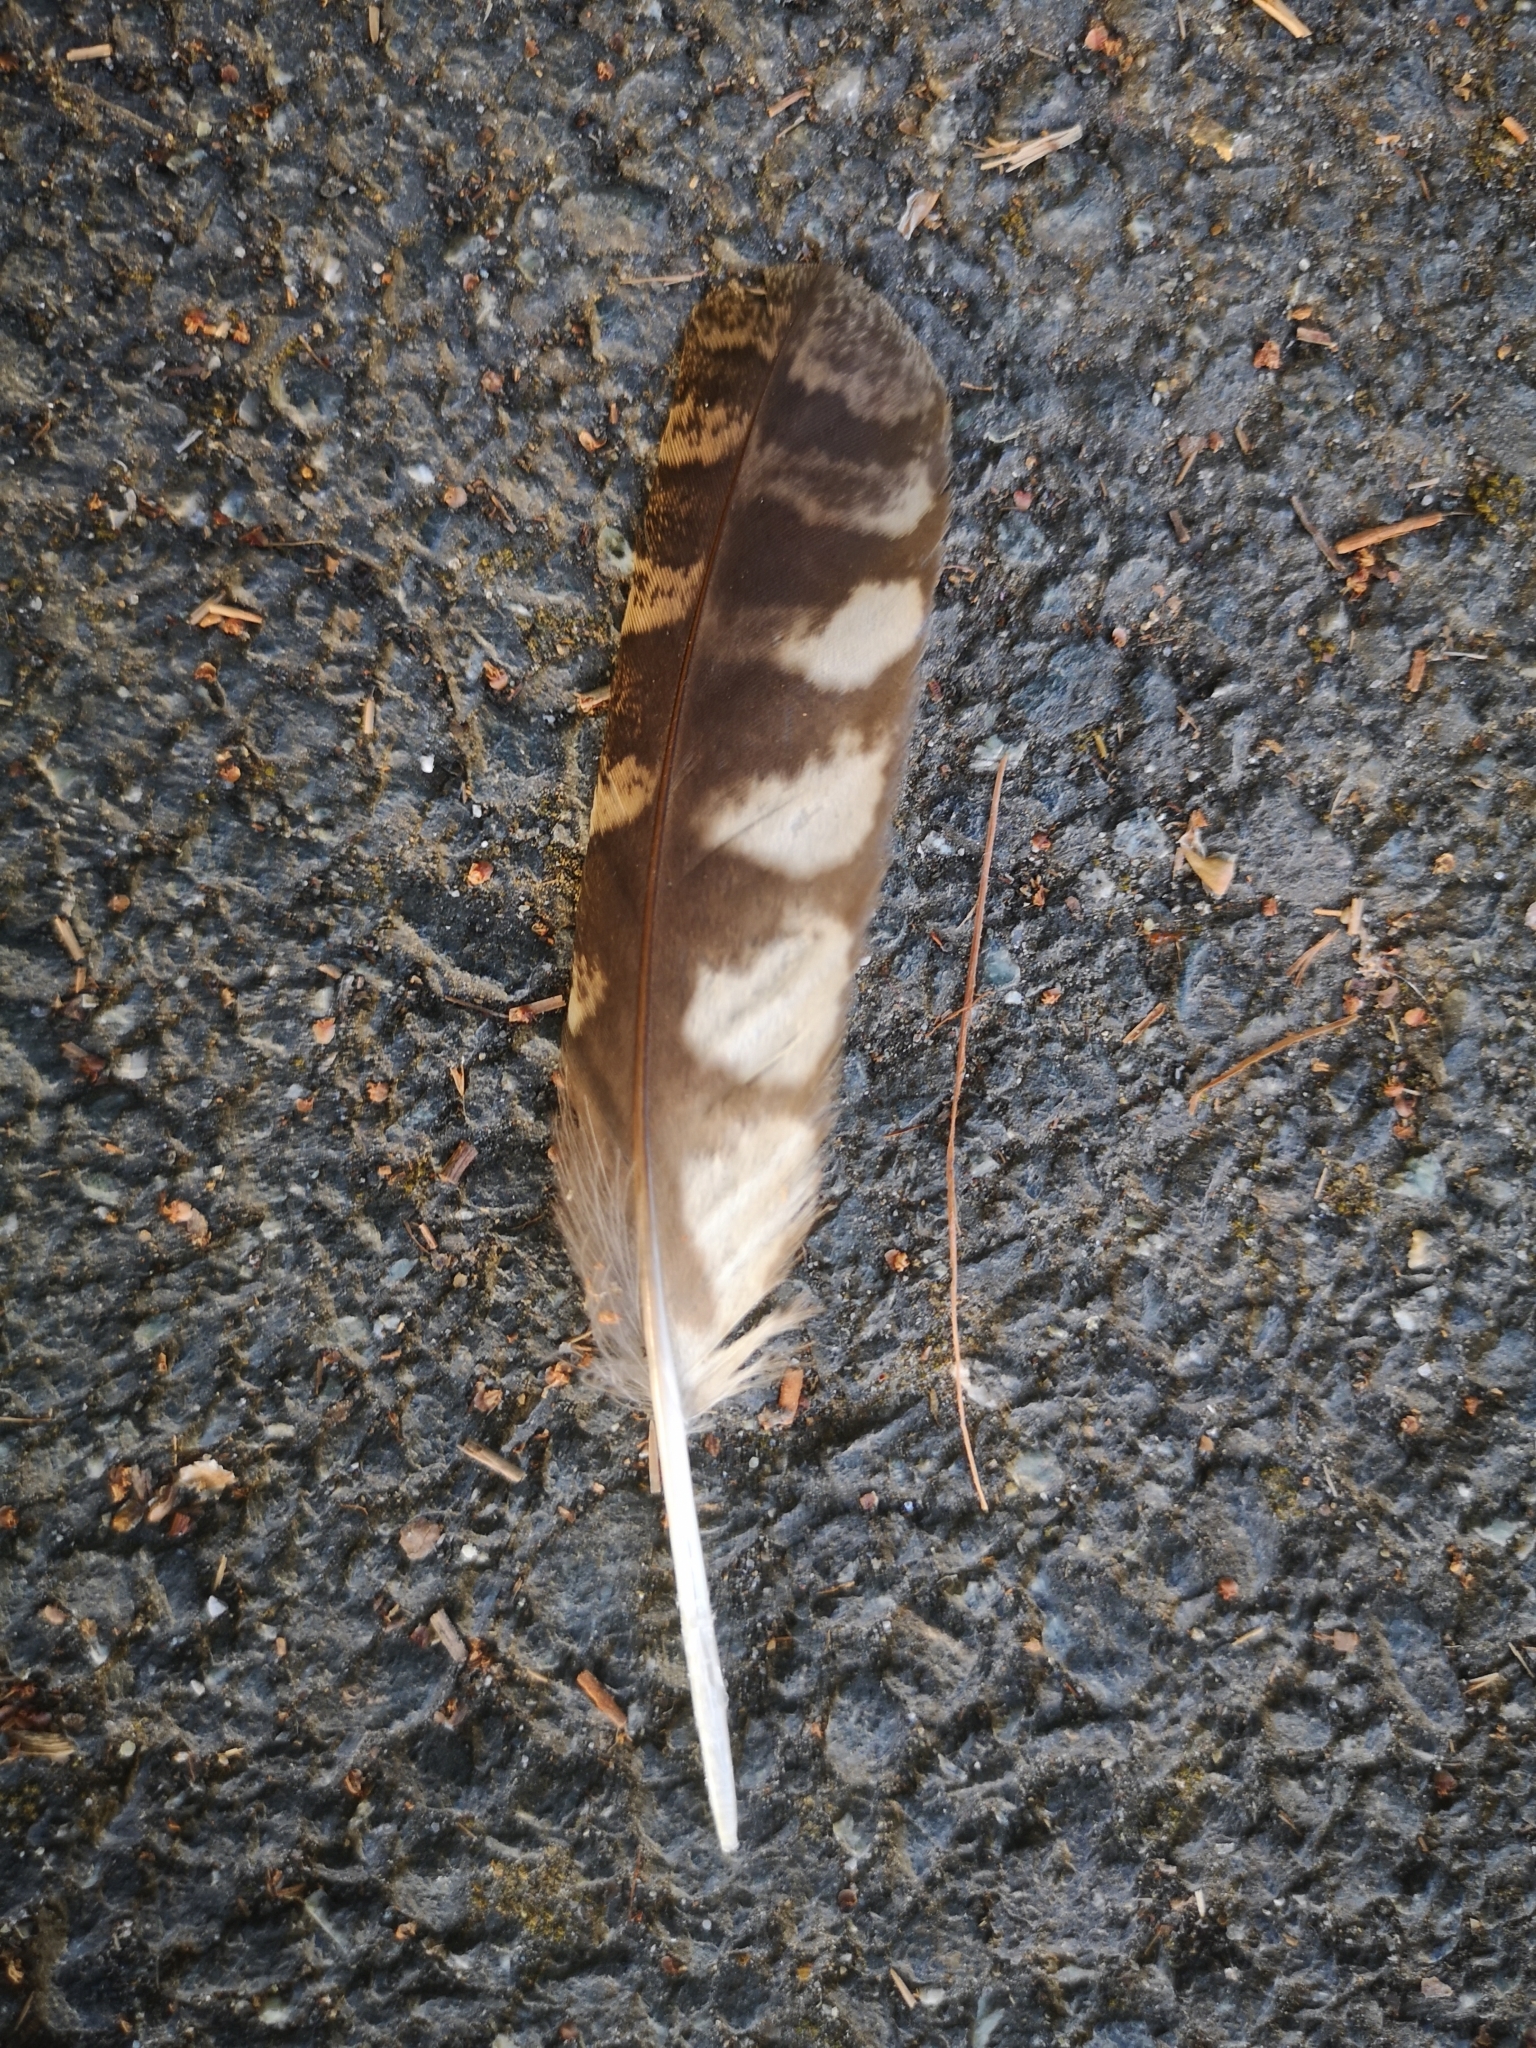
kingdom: Animalia
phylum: Chordata
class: Aves
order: Strigiformes
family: Strigidae
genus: Otus
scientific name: Otus scops
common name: Eurasian scops owl
